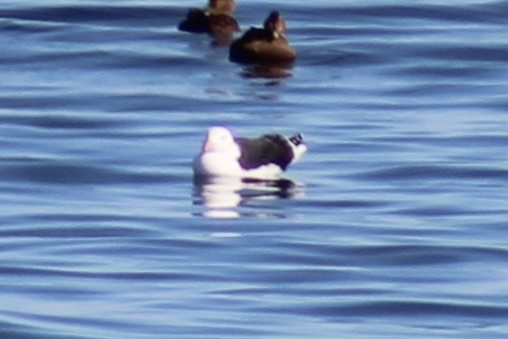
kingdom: Animalia
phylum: Chordata
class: Aves
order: Charadriiformes
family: Laridae
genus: Larus
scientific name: Larus marinus
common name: Great black-backed gull
